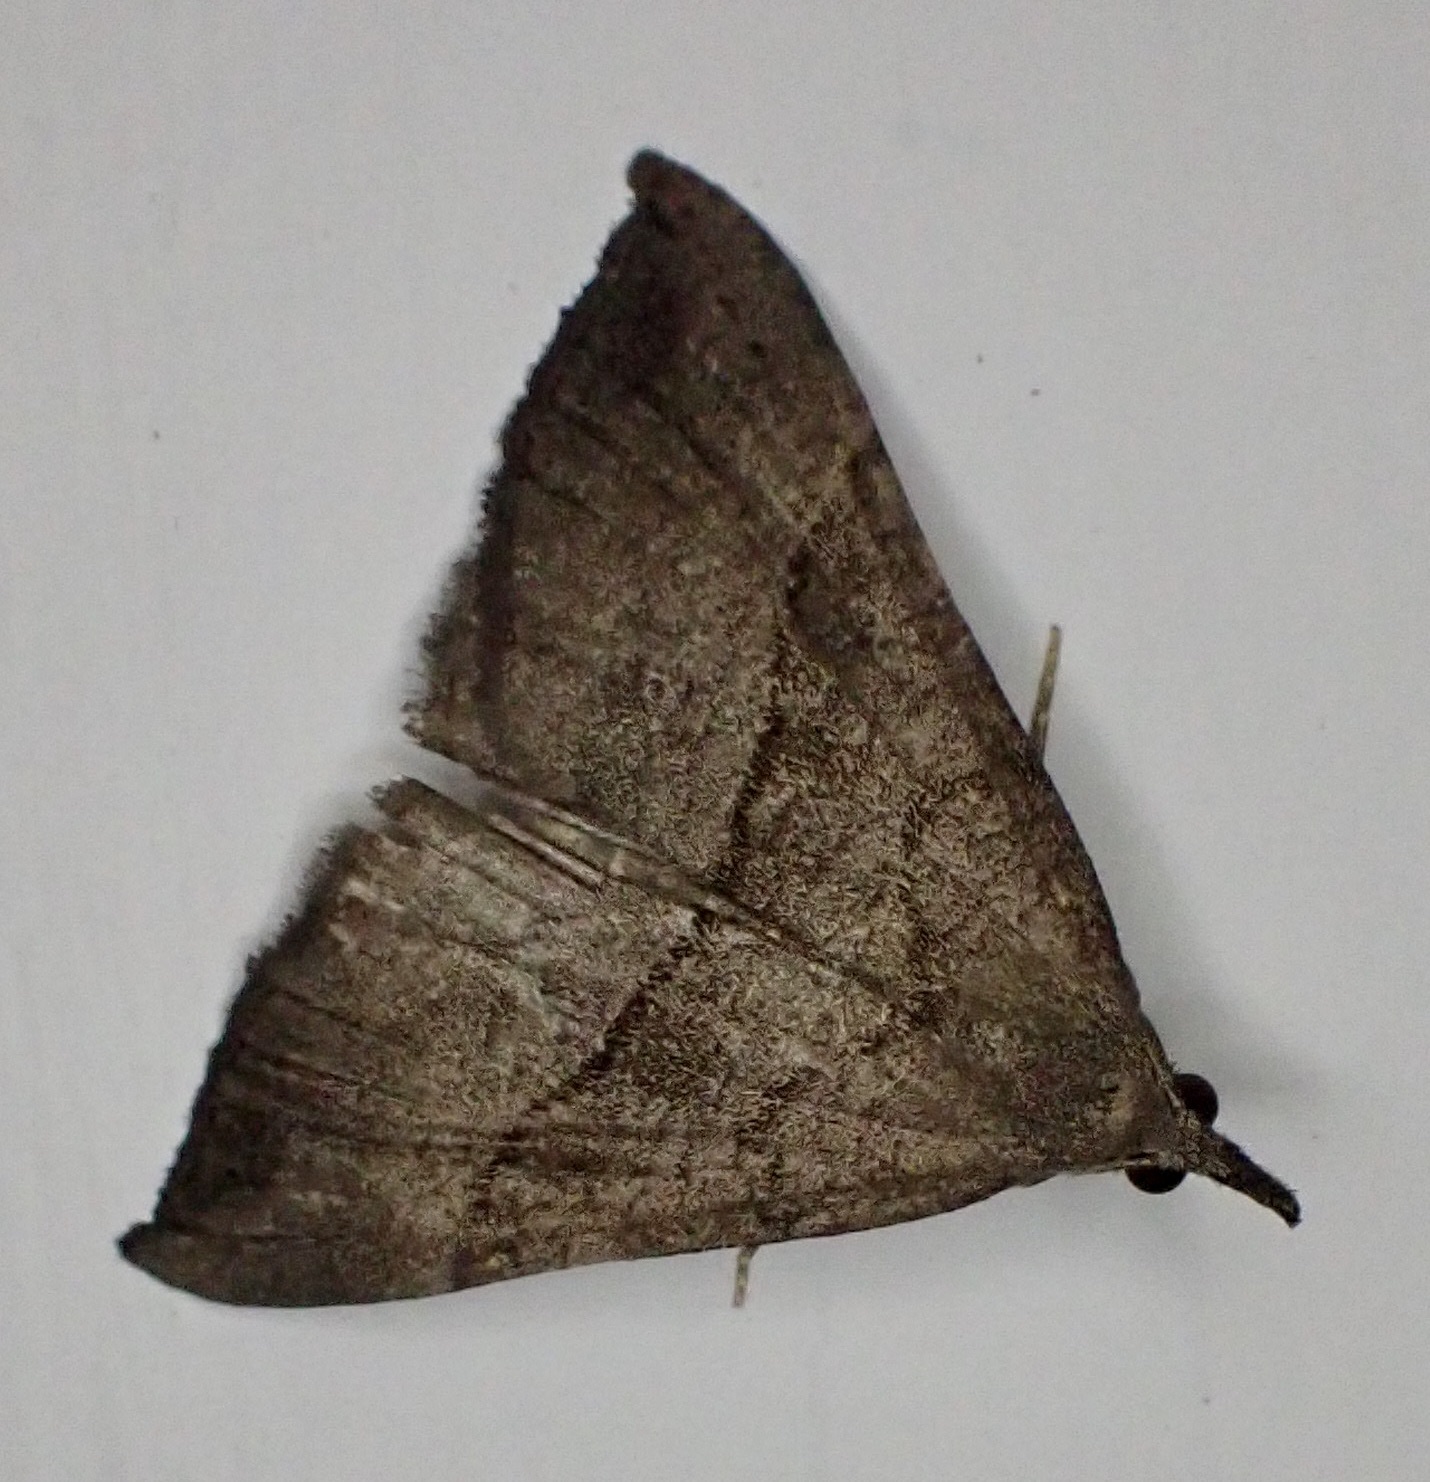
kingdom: Animalia
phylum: Arthropoda
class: Insecta
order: Lepidoptera
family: Erebidae
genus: Hypena
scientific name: Hypena proboscidalis
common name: Snout
